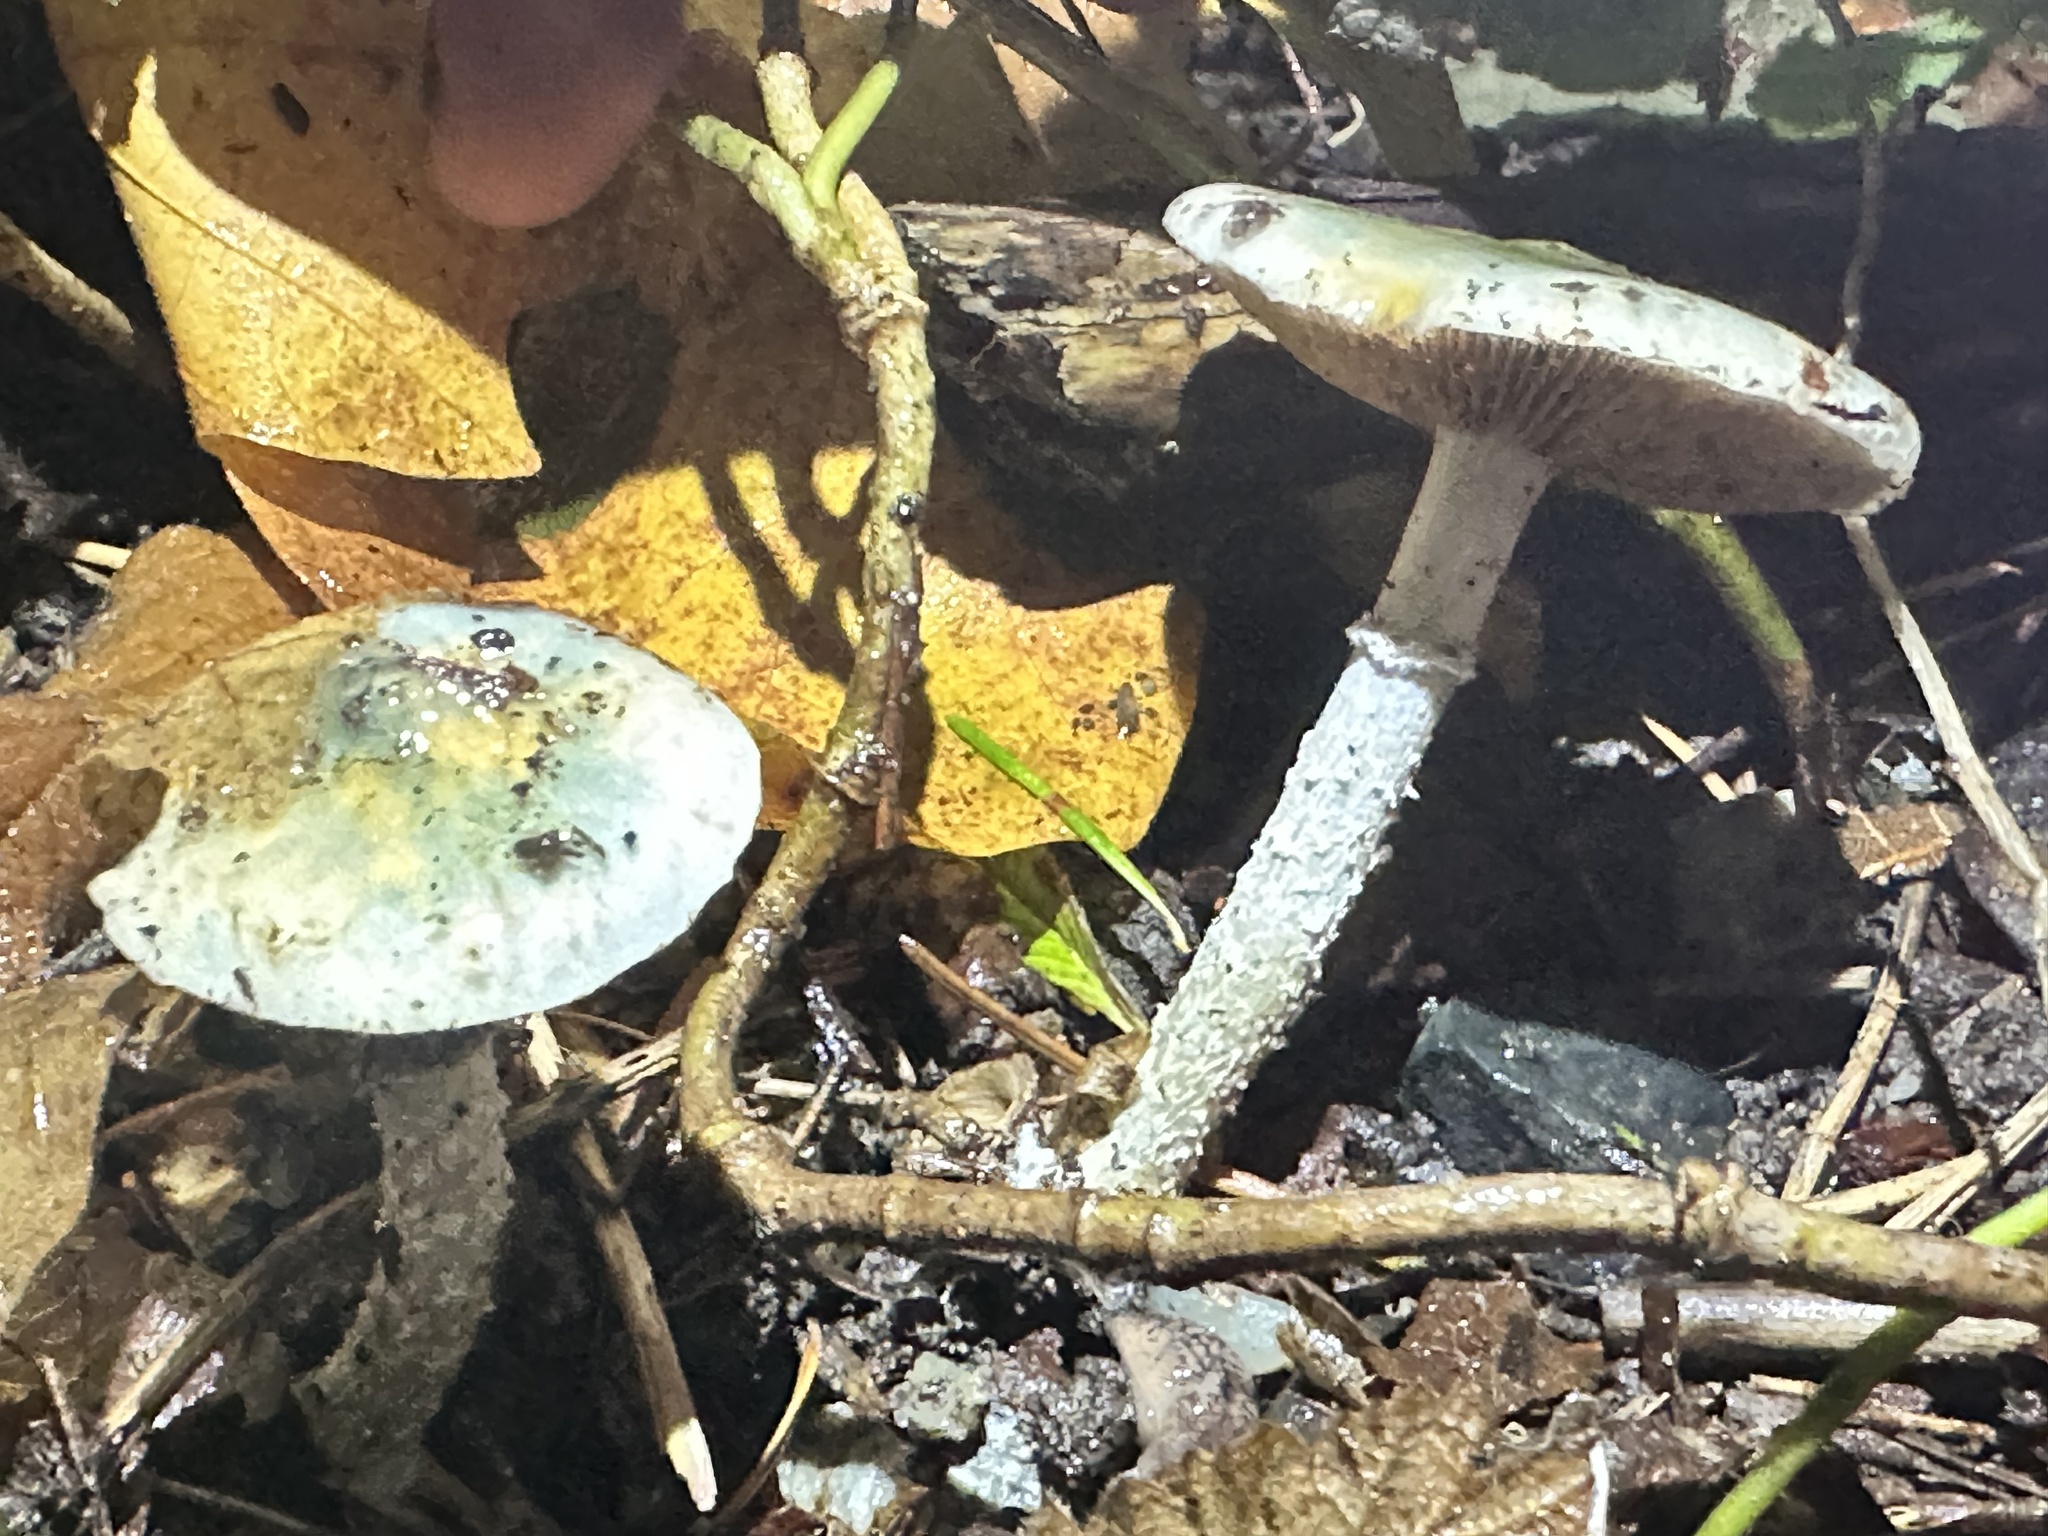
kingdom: Fungi
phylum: Basidiomycota
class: Agaricomycetes
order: Agaricales
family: Strophariaceae
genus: Stropharia
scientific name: Stropharia caerulea
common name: Blue roundhead
